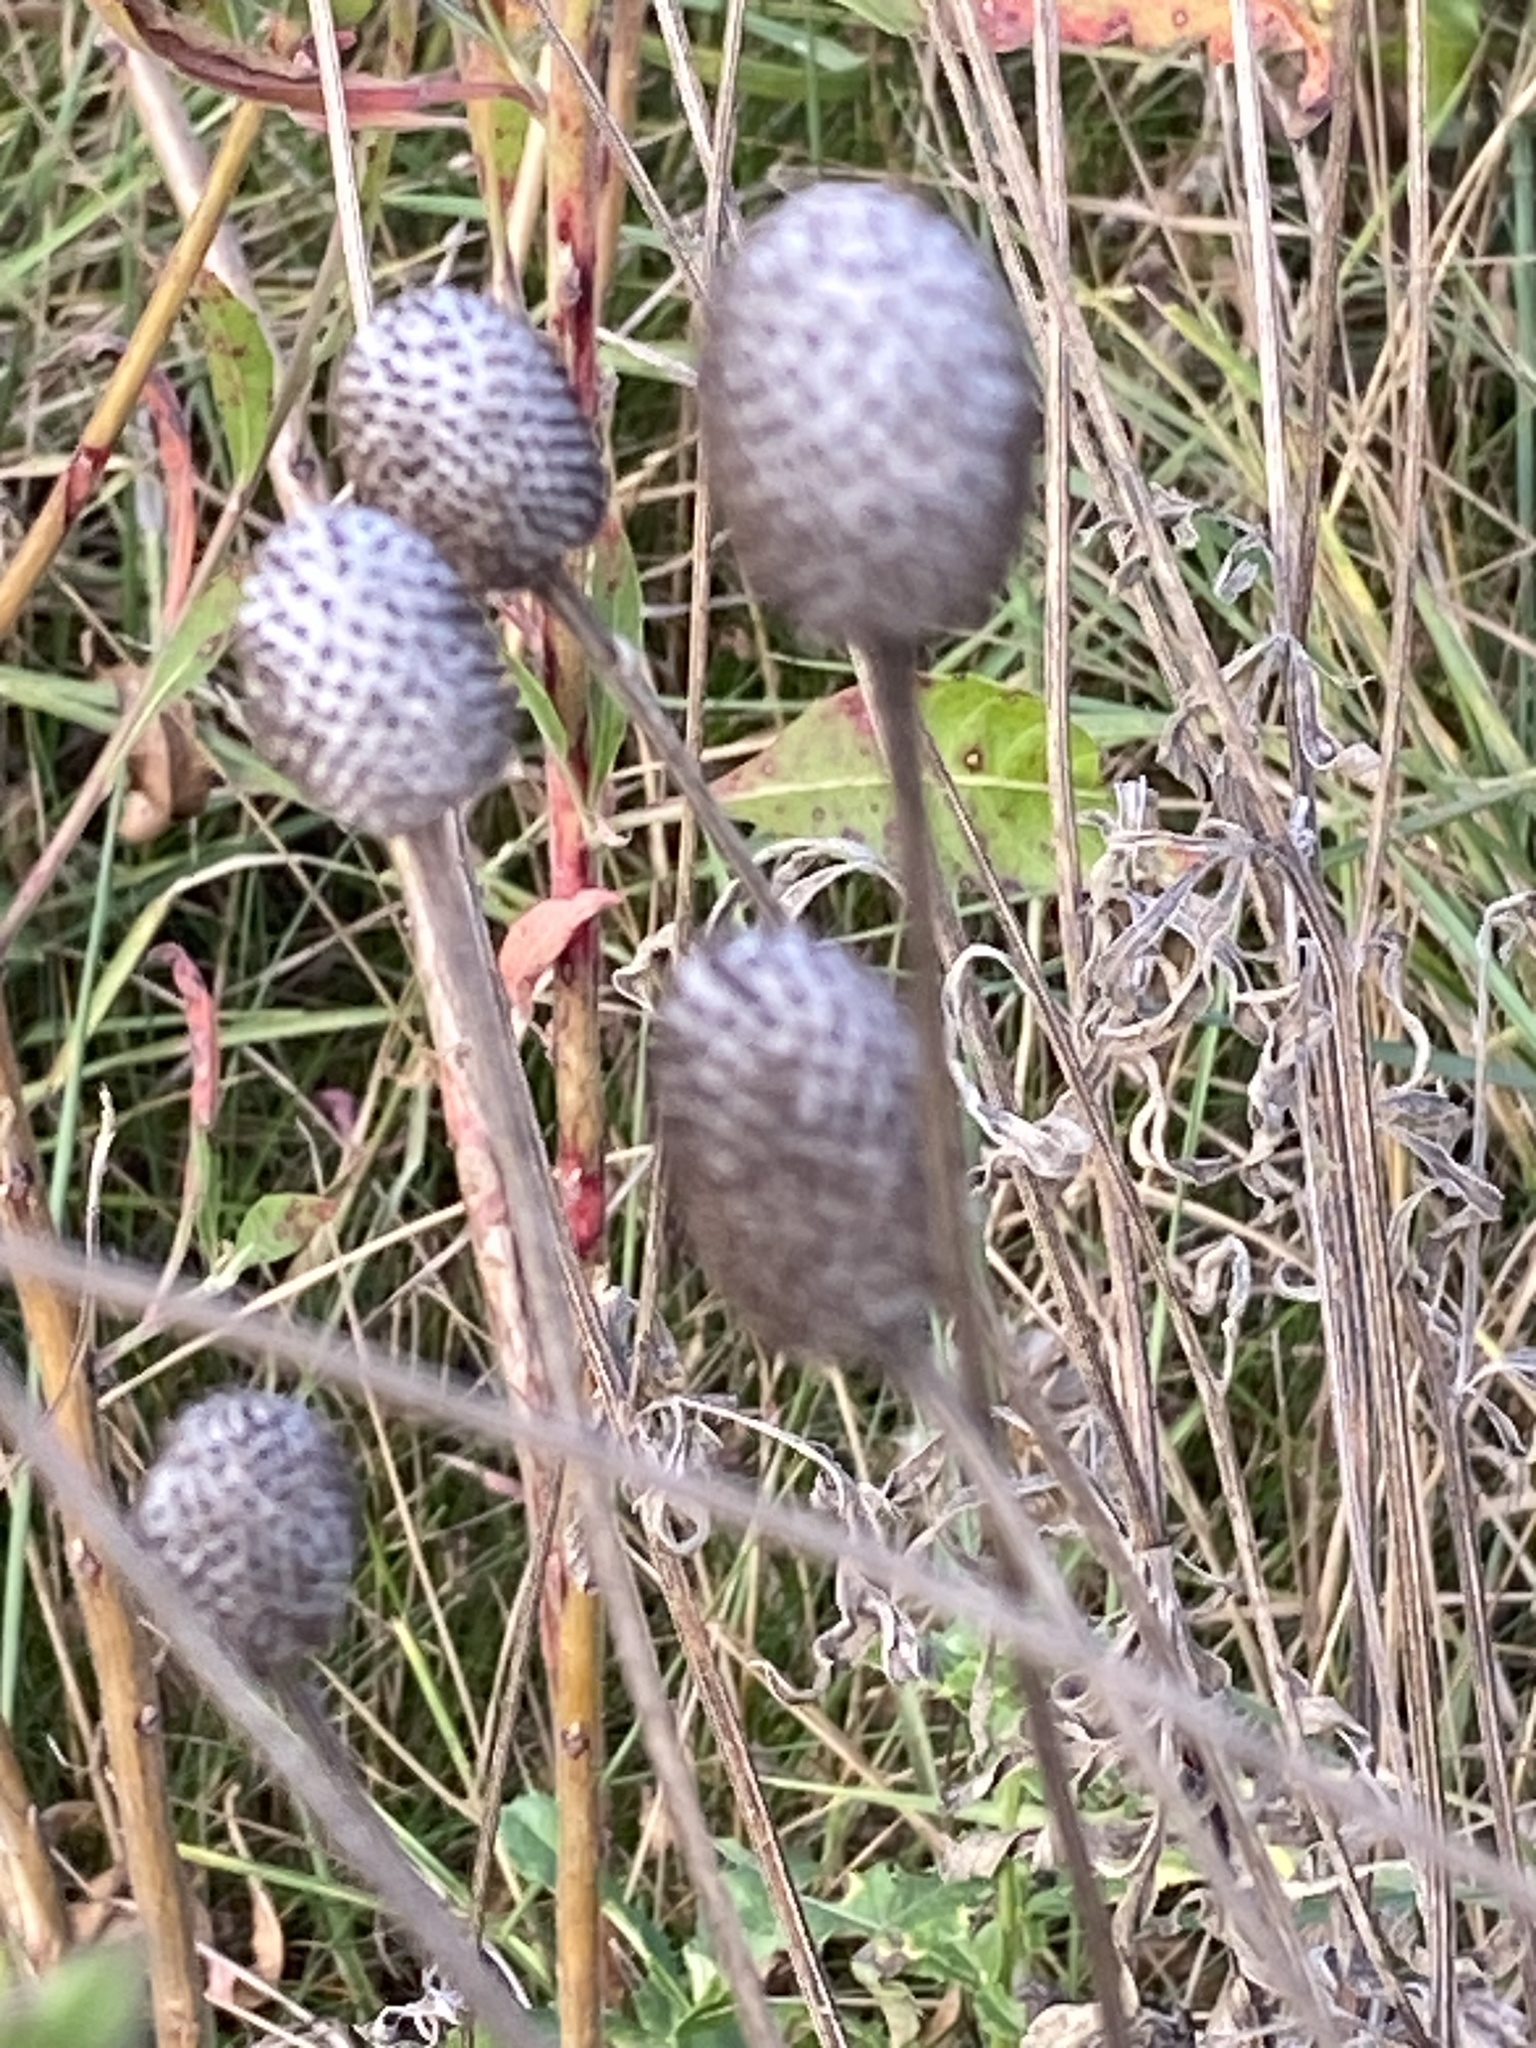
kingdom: Plantae
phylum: Tracheophyta
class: Magnoliopsida
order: Asterales
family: Asteraceae
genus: Ratibida
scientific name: Ratibida pinnata
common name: Drooping prairie-coneflower
